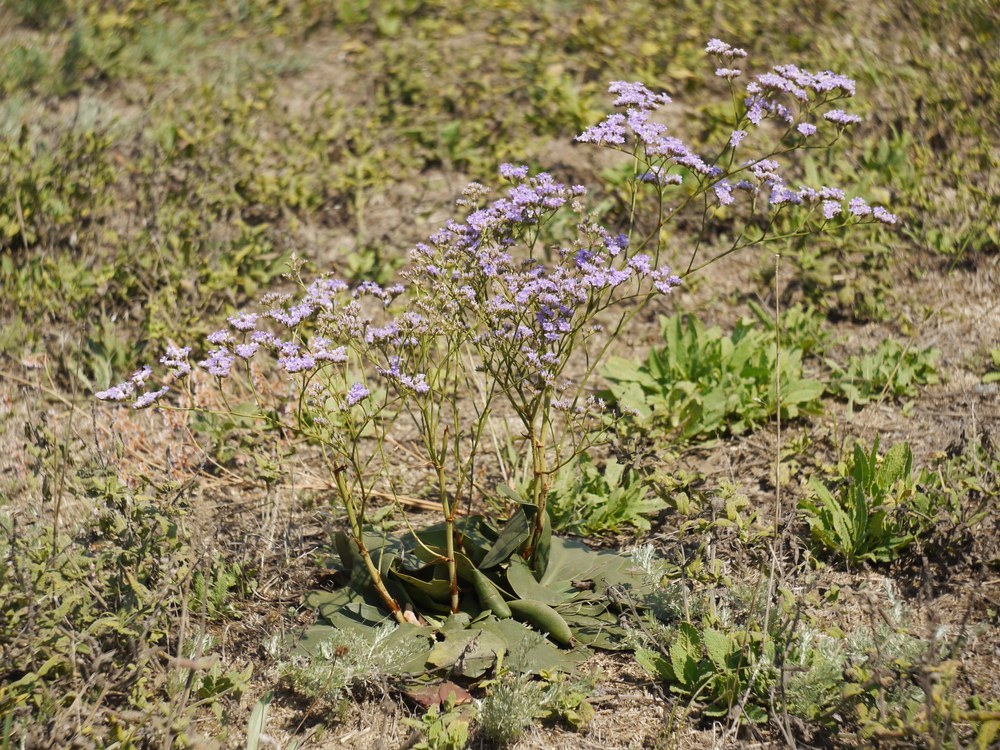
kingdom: Plantae
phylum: Tracheophyta
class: Magnoliopsida
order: Caryophyllales
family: Plumbaginaceae
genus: Limonium
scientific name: Limonium gmelini
